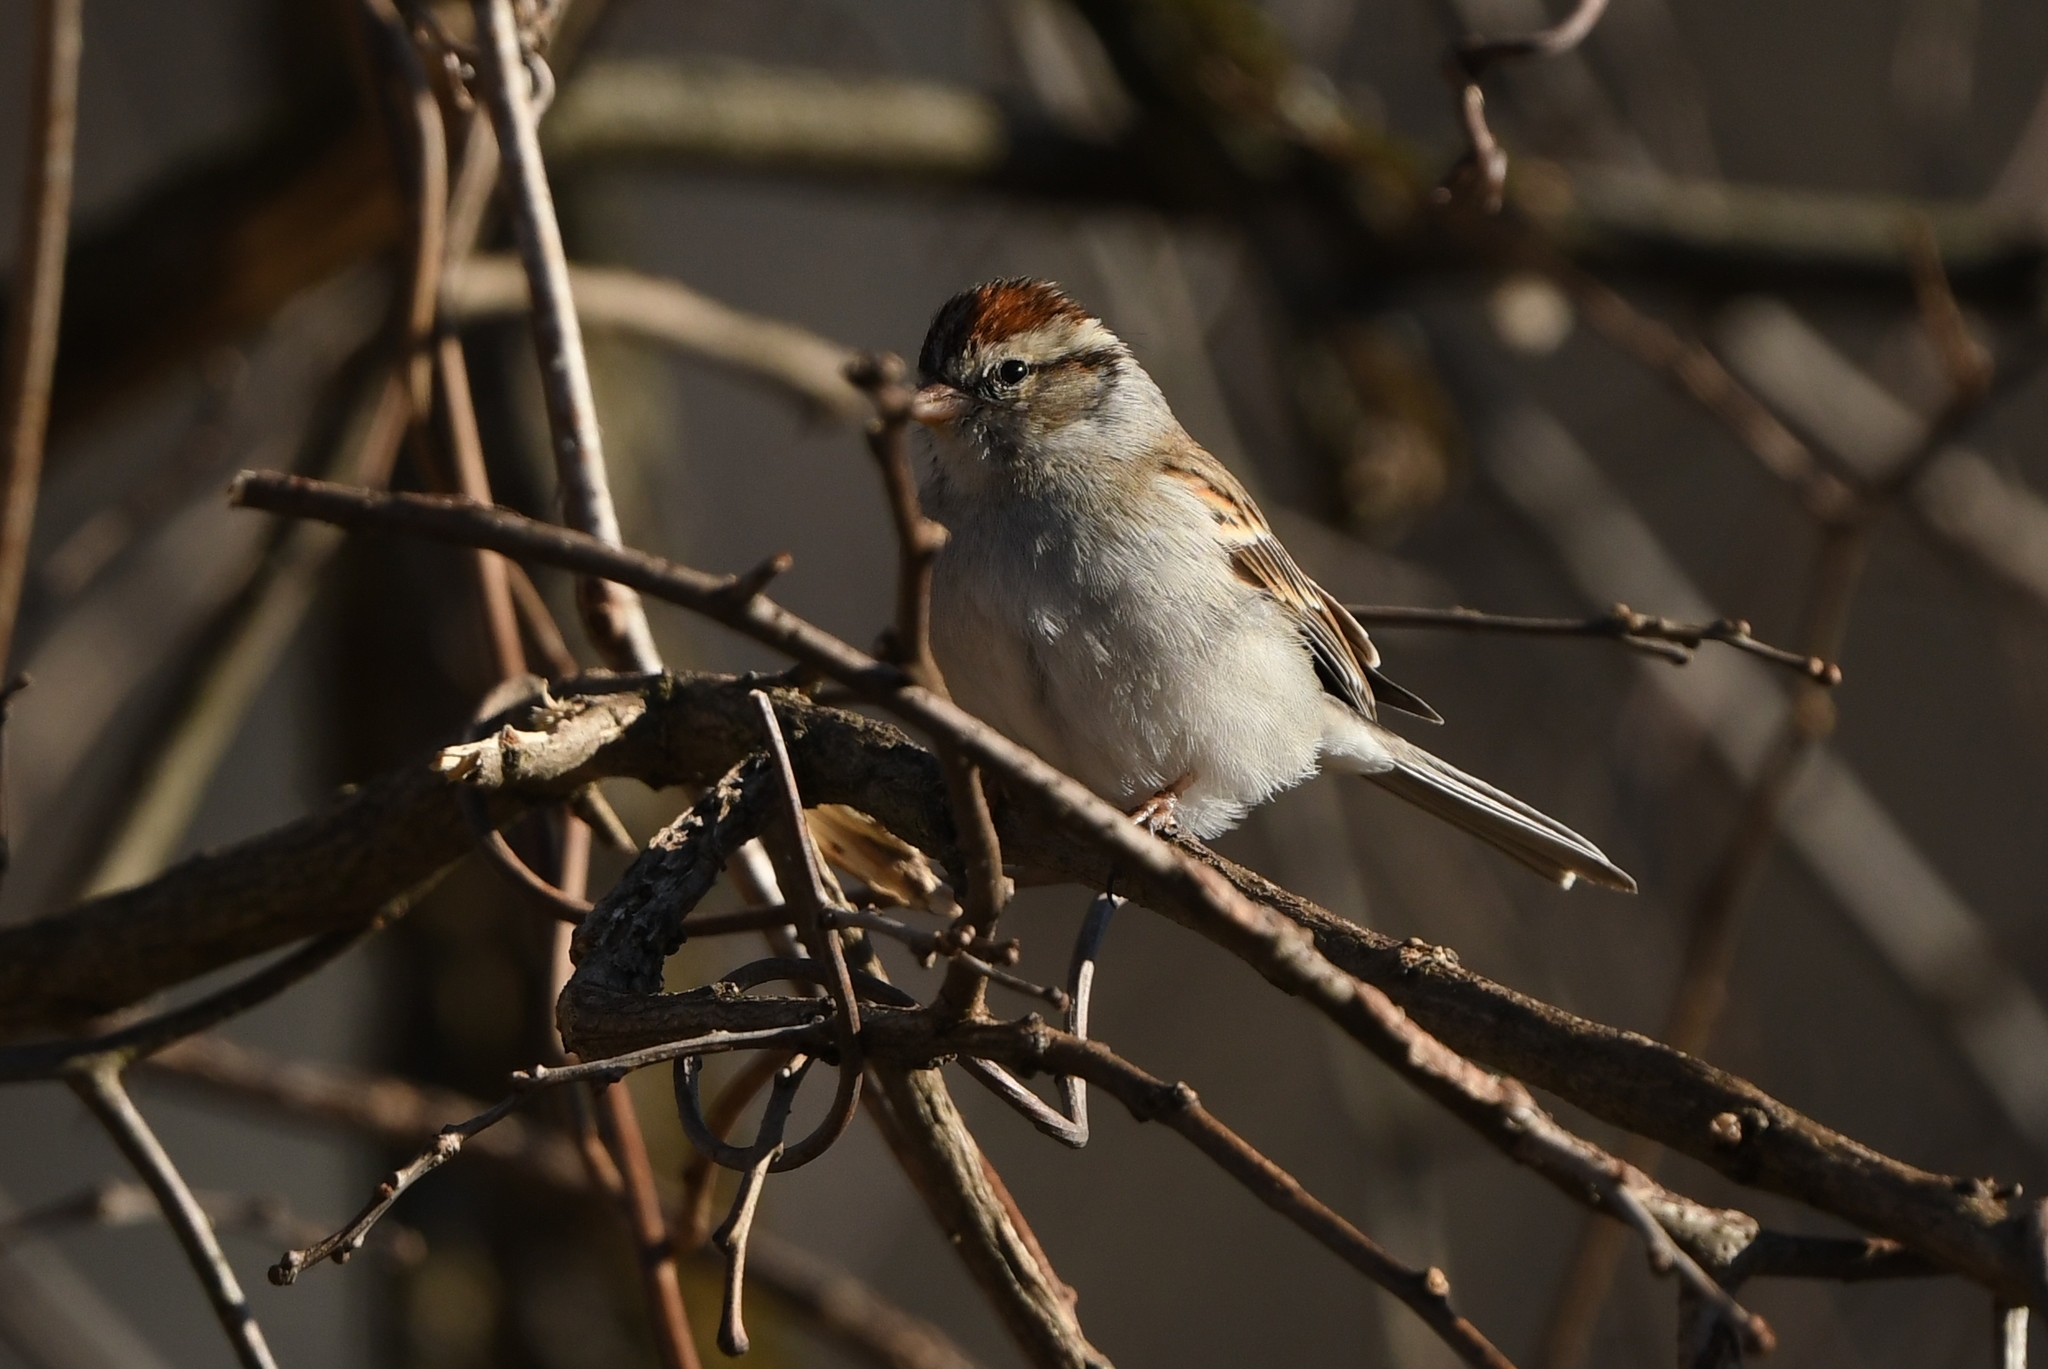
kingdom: Animalia
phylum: Chordata
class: Aves
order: Passeriformes
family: Passerellidae
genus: Spizella
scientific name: Spizella passerina
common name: Chipping sparrow
